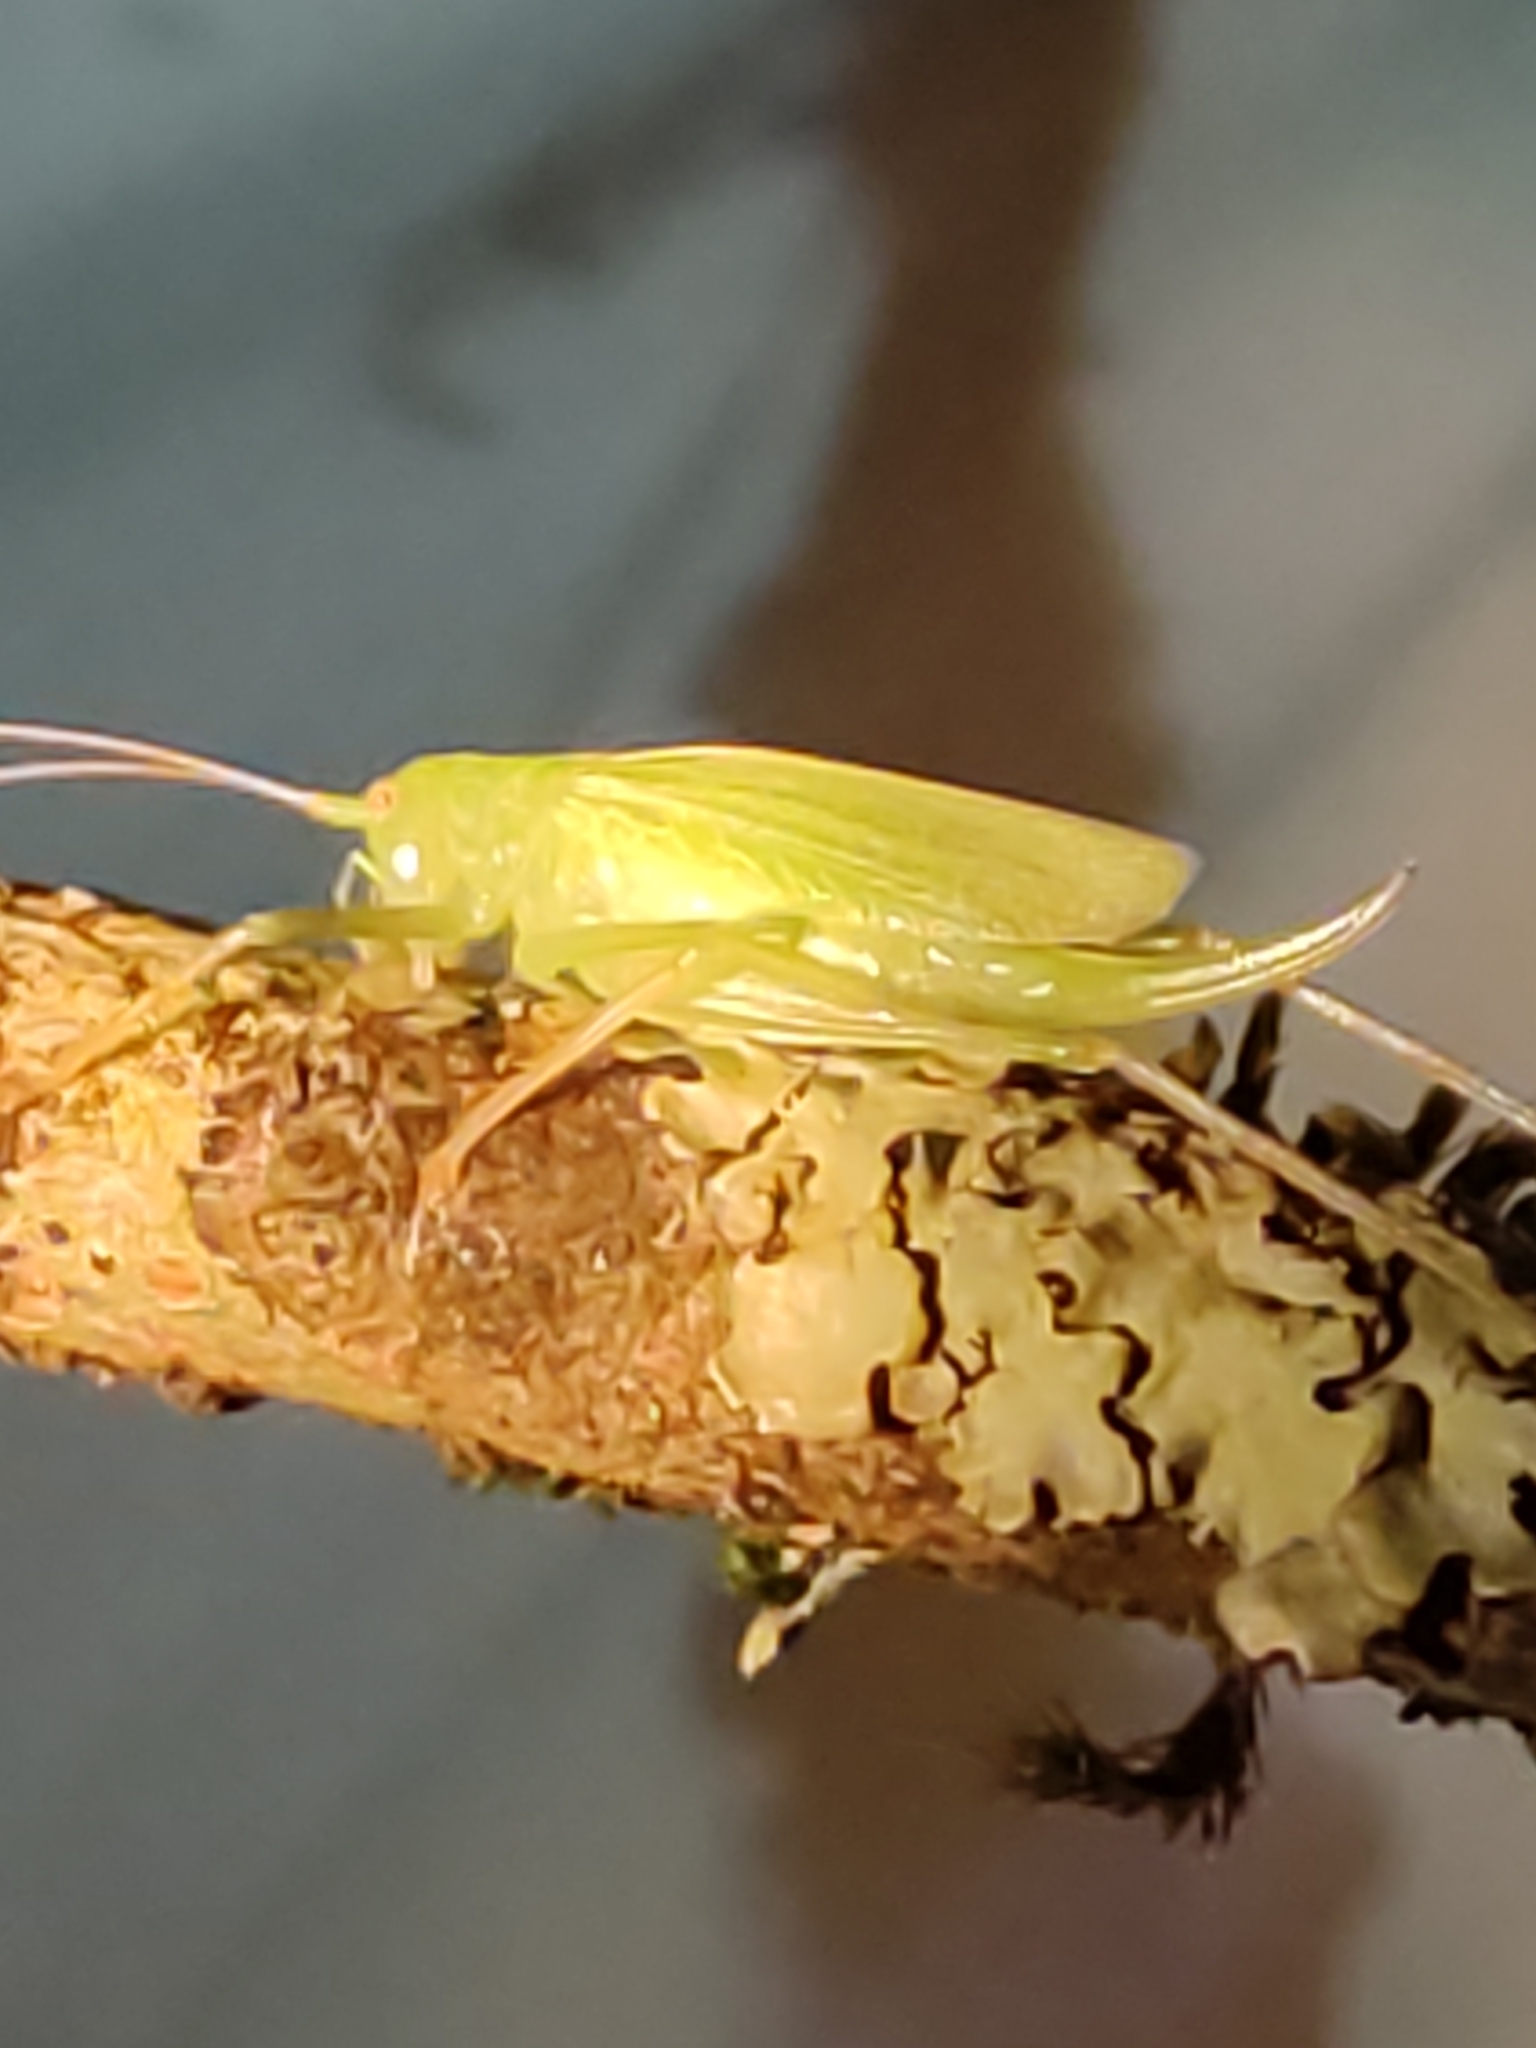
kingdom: Animalia
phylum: Arthropoda
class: Insecta
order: Orthoptera
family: Tettigoniidae
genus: Meconema
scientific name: Meconema thalassinum
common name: Oak bush-cricket
